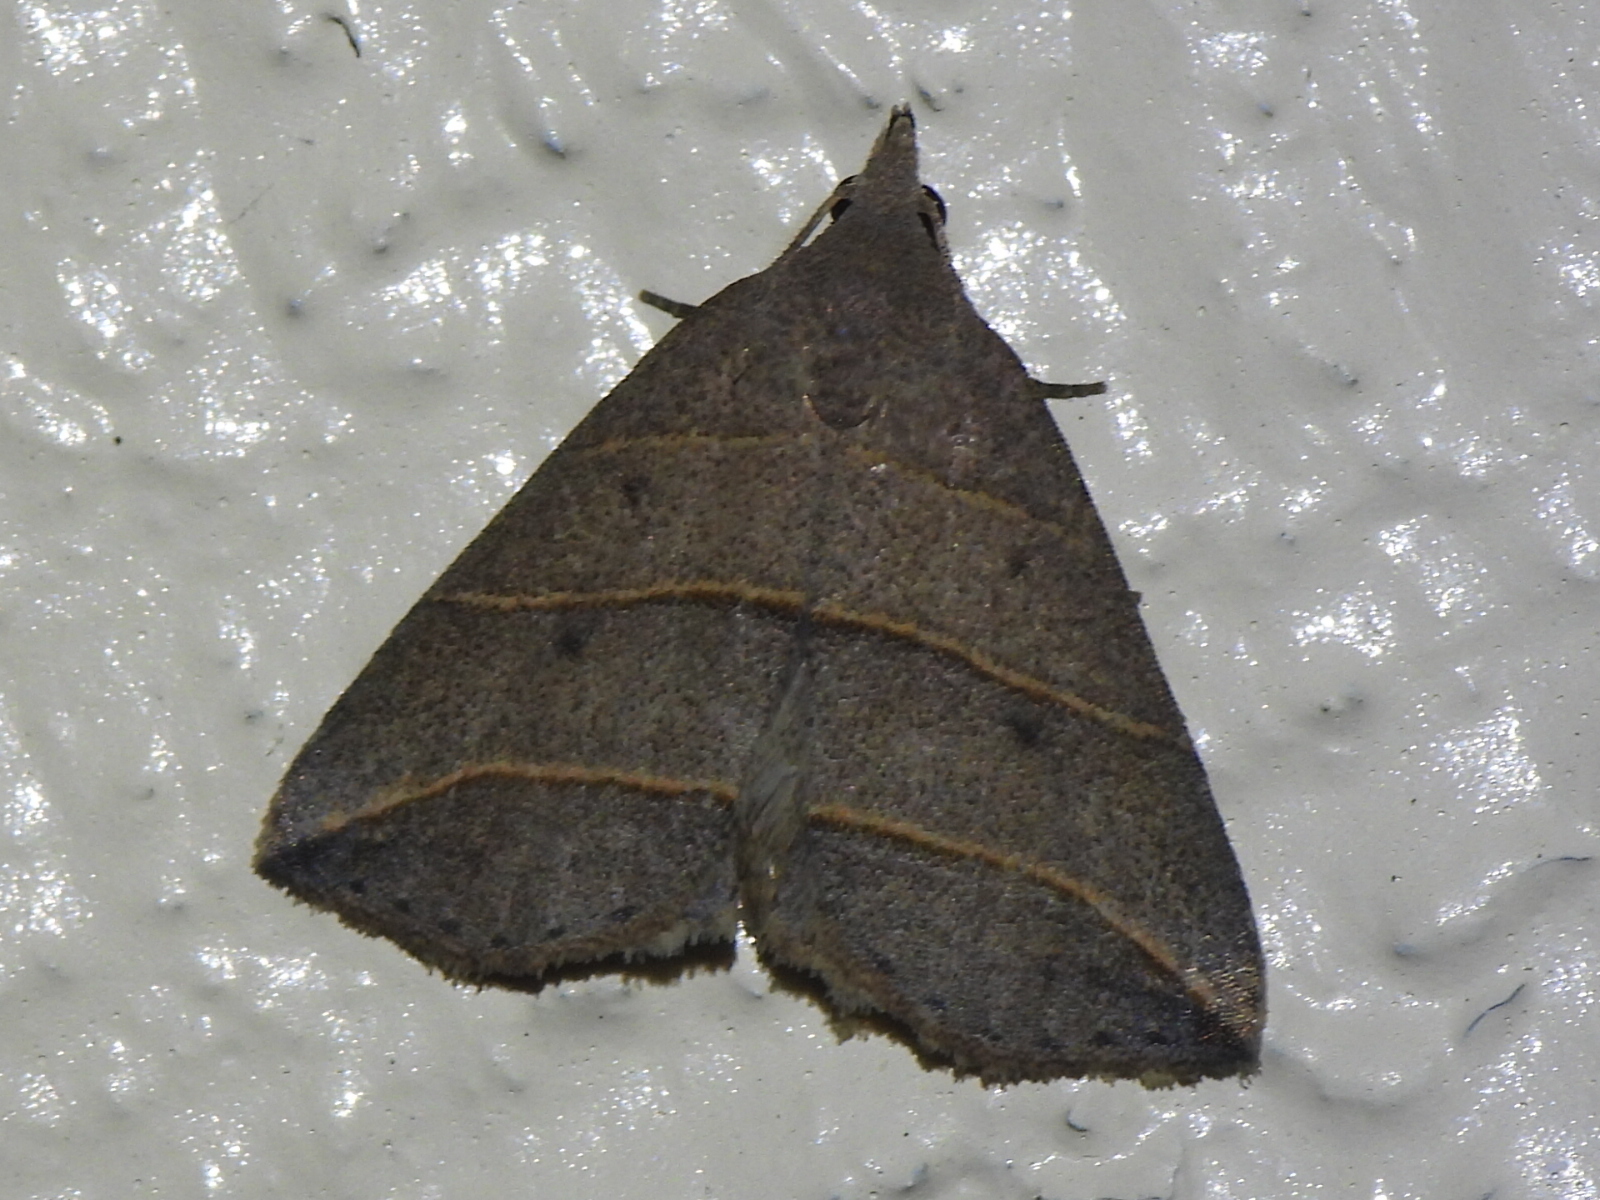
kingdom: Animalia
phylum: Arthropoda
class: Insecta
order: Lepidoptera
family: Erebidae
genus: Colobochyla
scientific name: Colobochyla interpuncta
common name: Yellow-lined owlet
